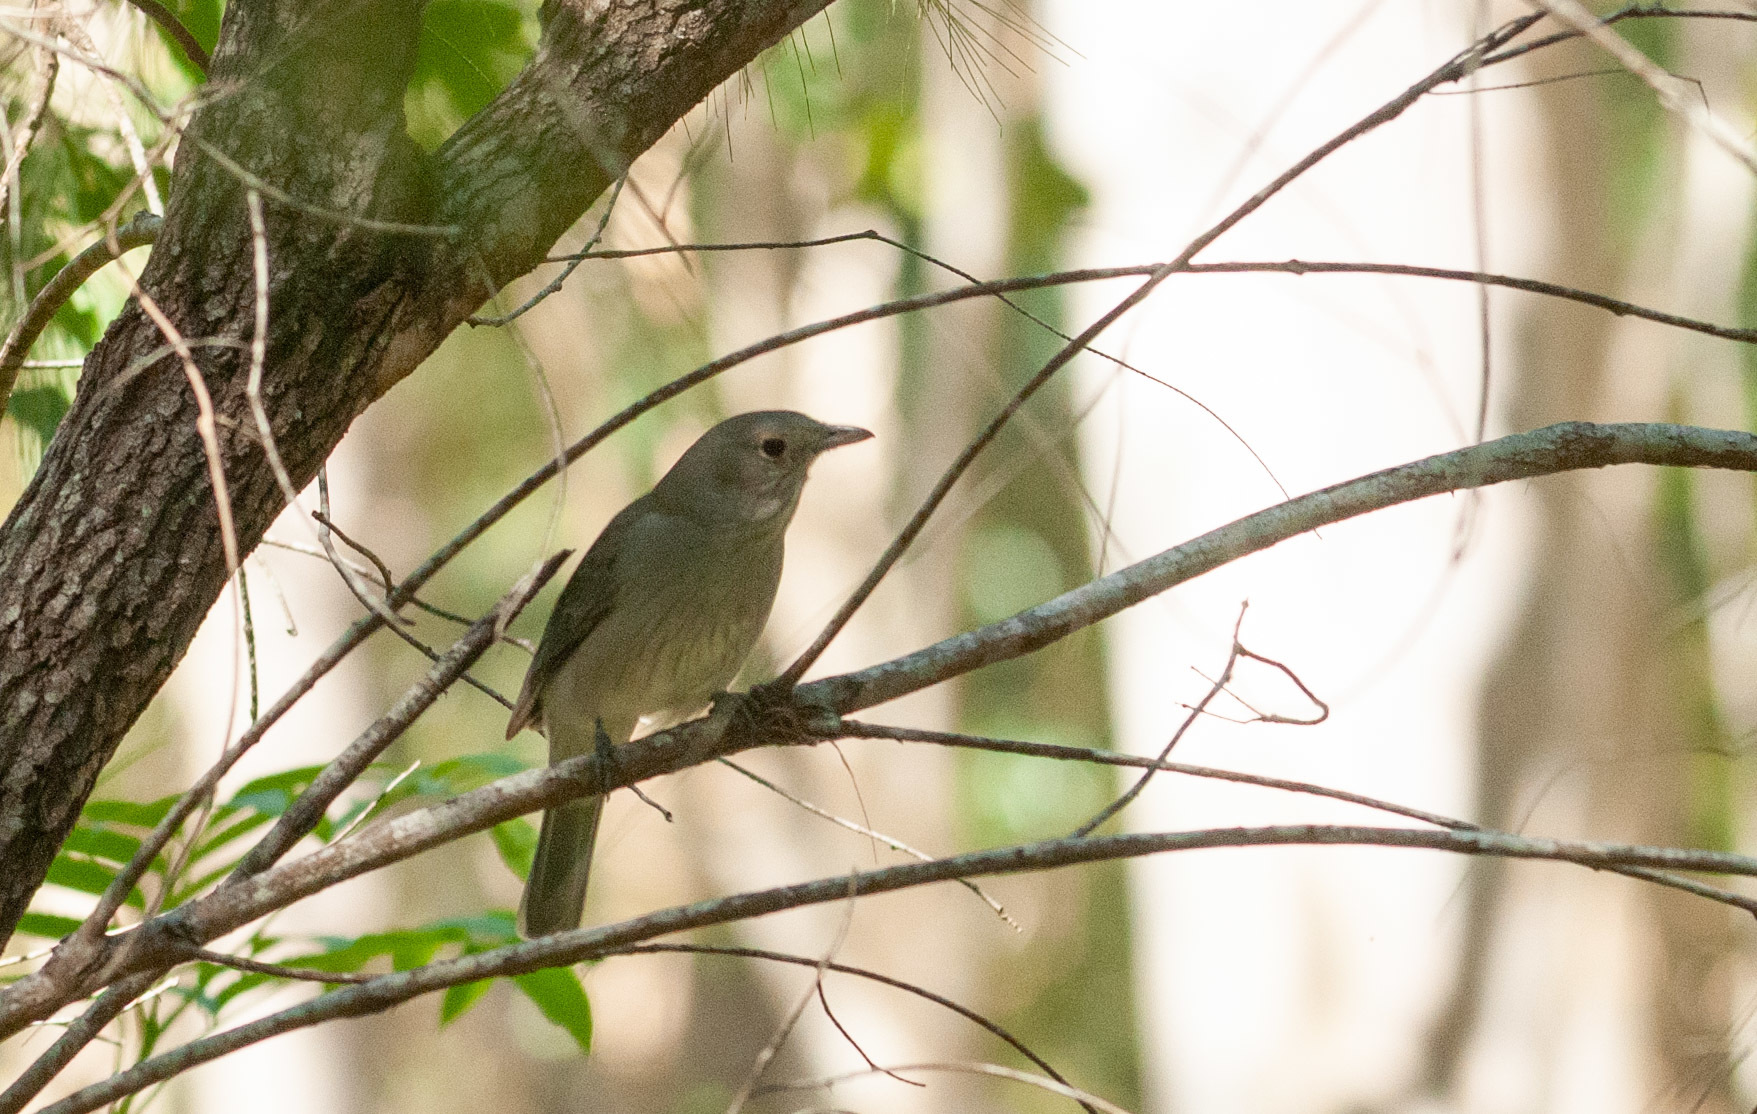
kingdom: Animalia
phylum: Chordata
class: Aves
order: Passeriformes
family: Pachycephalidae
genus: Colluricincla
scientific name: Colluricincla harmonica
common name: Grey shrikethrush
